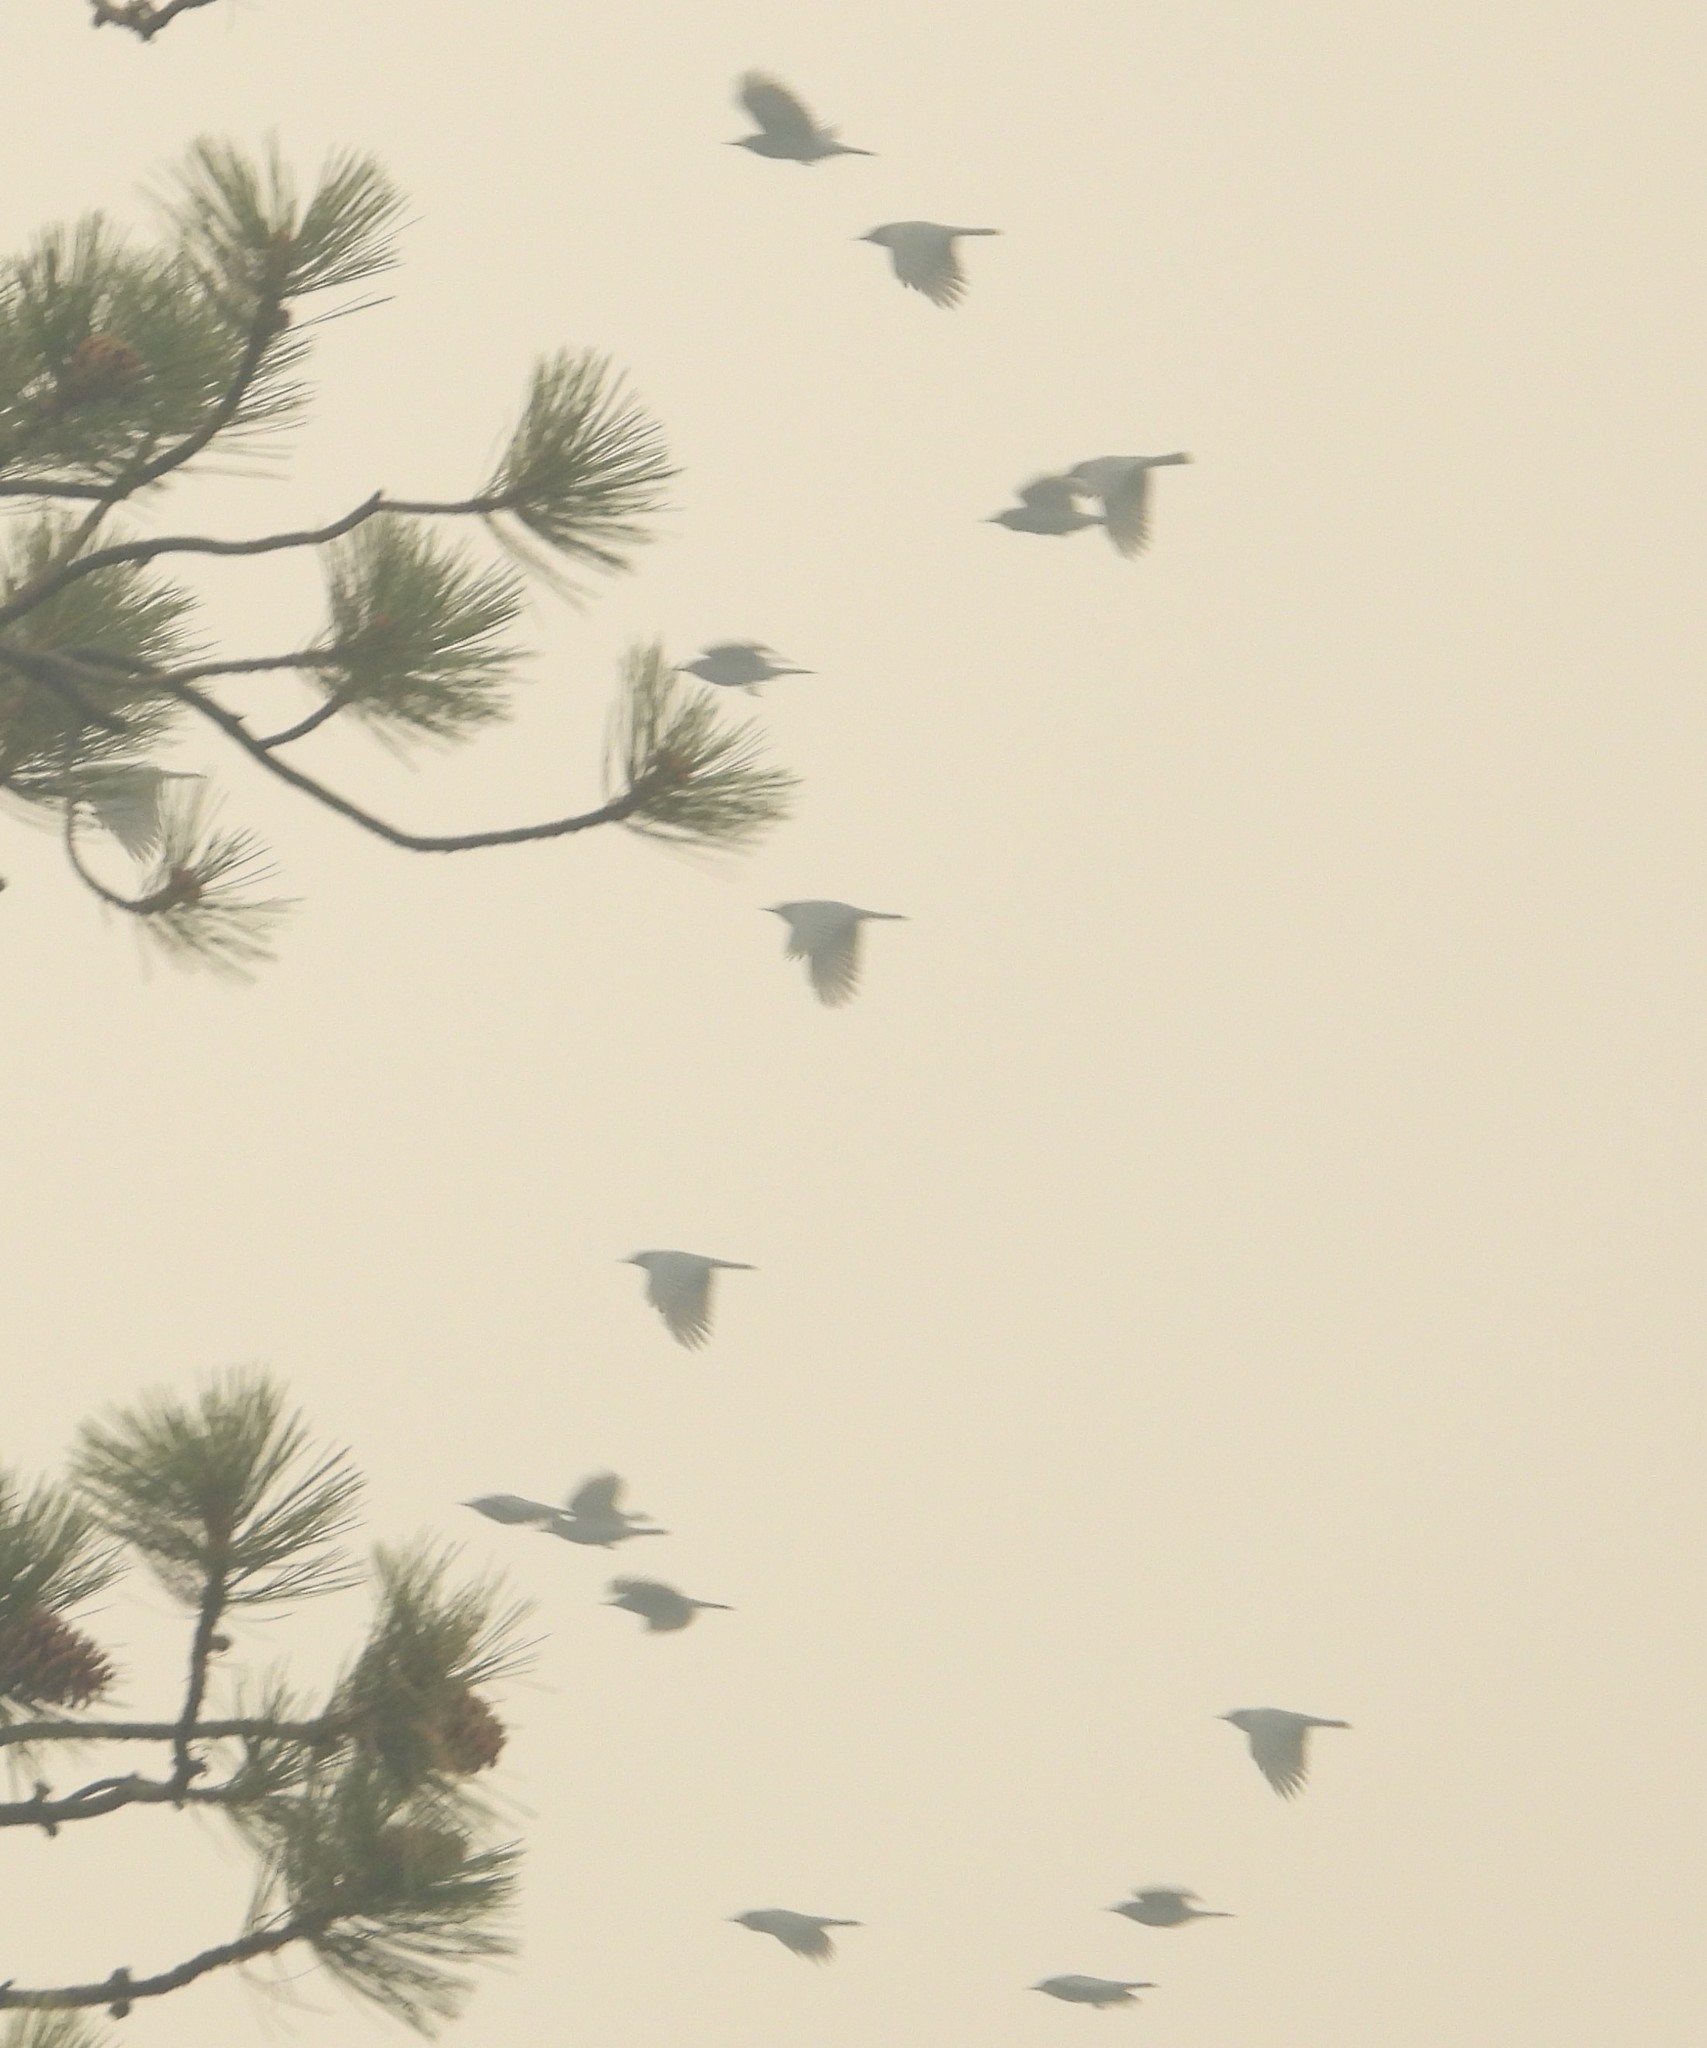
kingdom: Animalia
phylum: Chordata
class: Aves
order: Passeriformes
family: Corvidae
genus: Gymnorhinus
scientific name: Gymnorhinus cyanocephalus
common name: Pinyon jay
